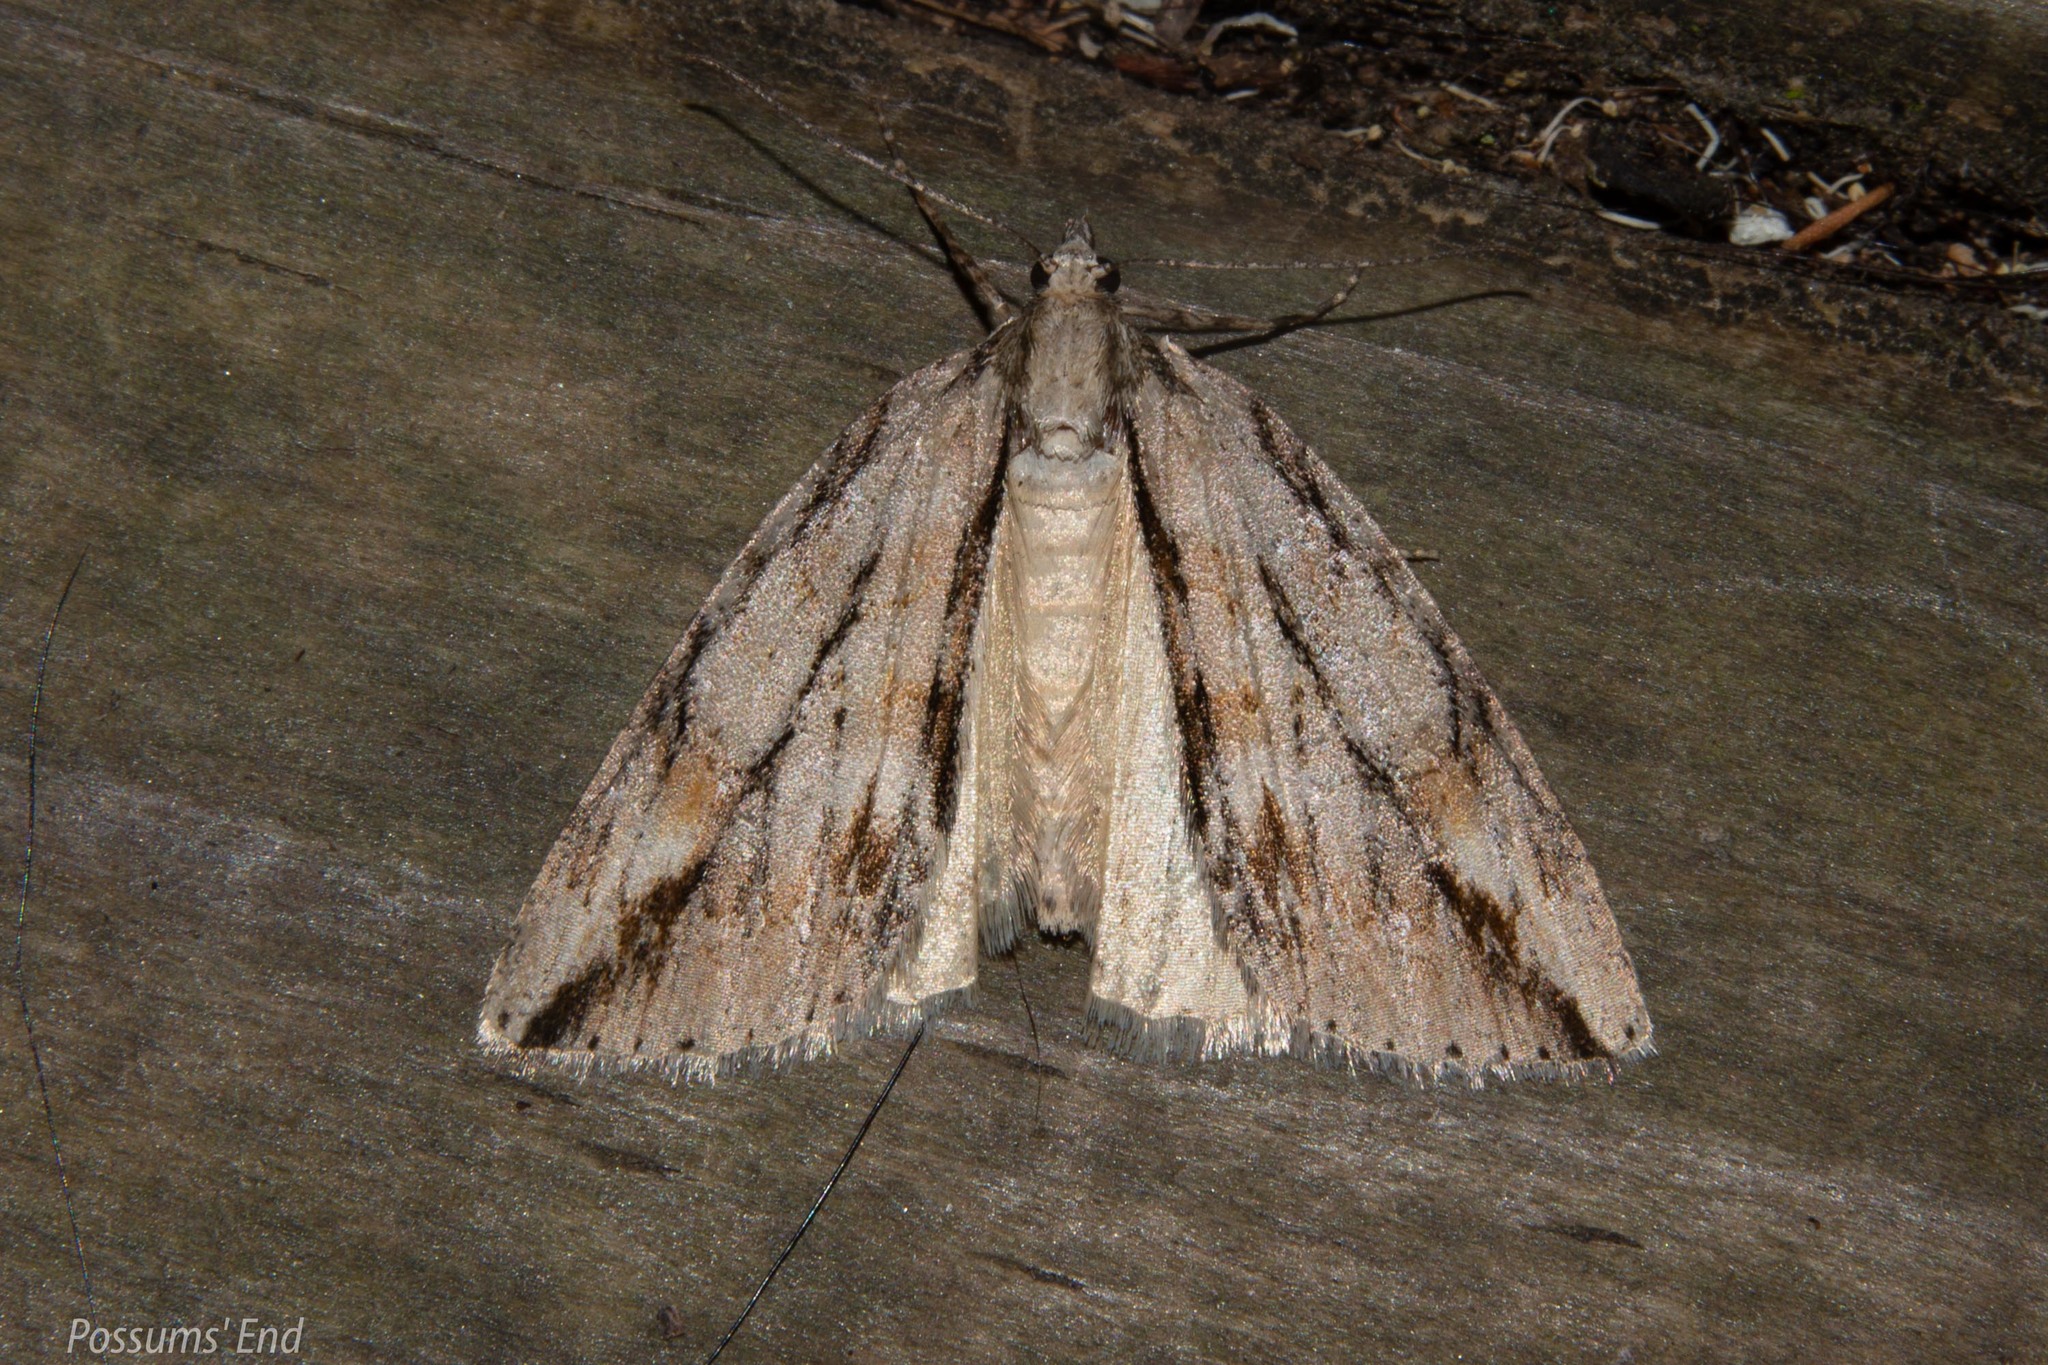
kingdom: Animalia
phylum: Arthropoda
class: Insecta
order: Lepidoptera
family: Geometridae
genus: Pseudocoremia
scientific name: Pseudocoremia lupinata
